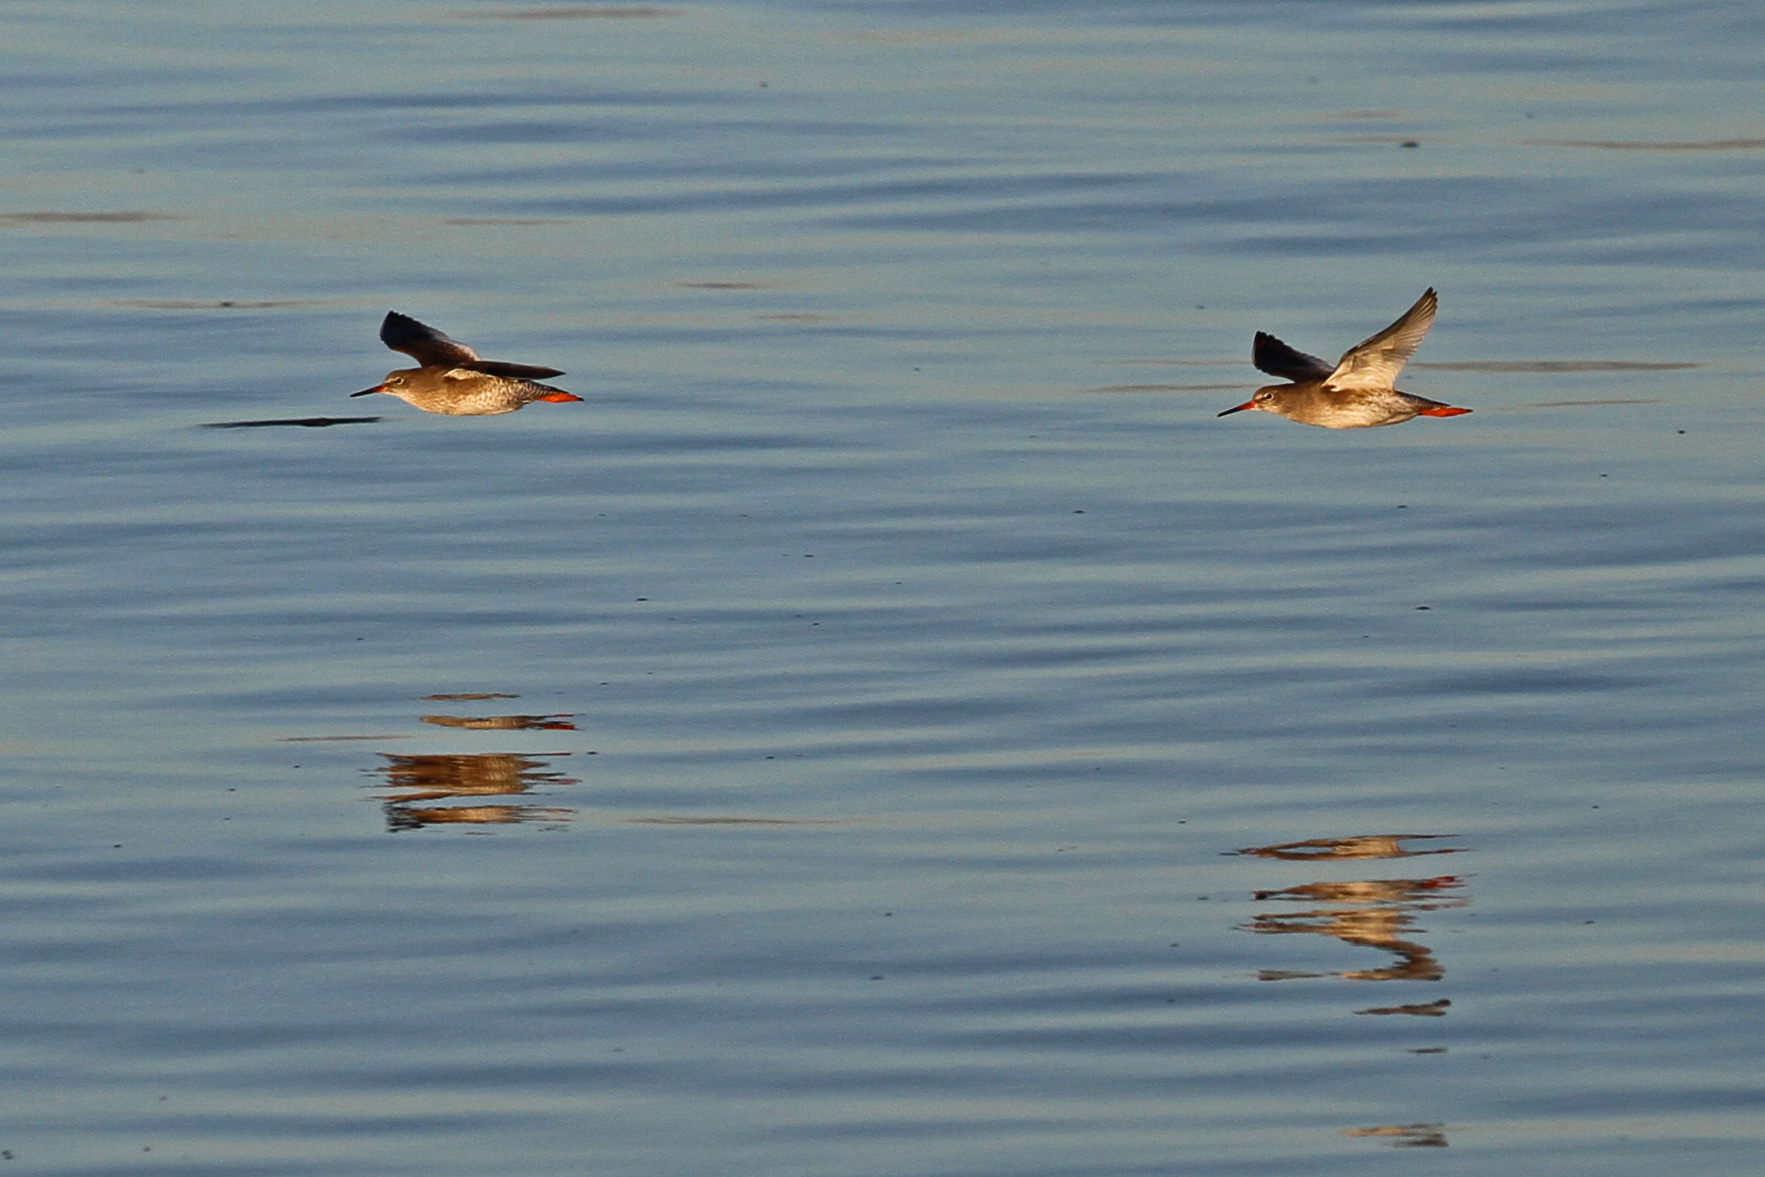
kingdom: Animalia
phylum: Chordata
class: Aves
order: Charadriiformes
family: Scolopacidae
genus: Tringa
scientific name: Tringa totanus
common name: Common redshank
